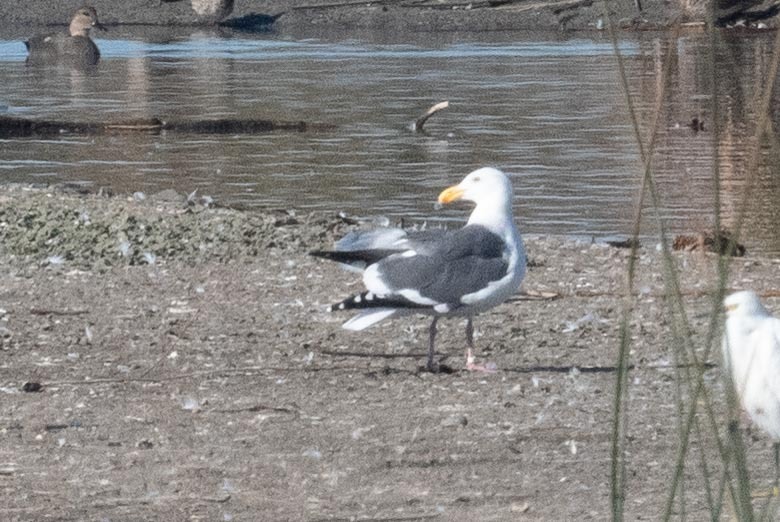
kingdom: Animalia
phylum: Chordata
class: Aves
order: Charadriiformes
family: Laridae
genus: Larus
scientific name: Larus occidentalis
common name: Western gull
